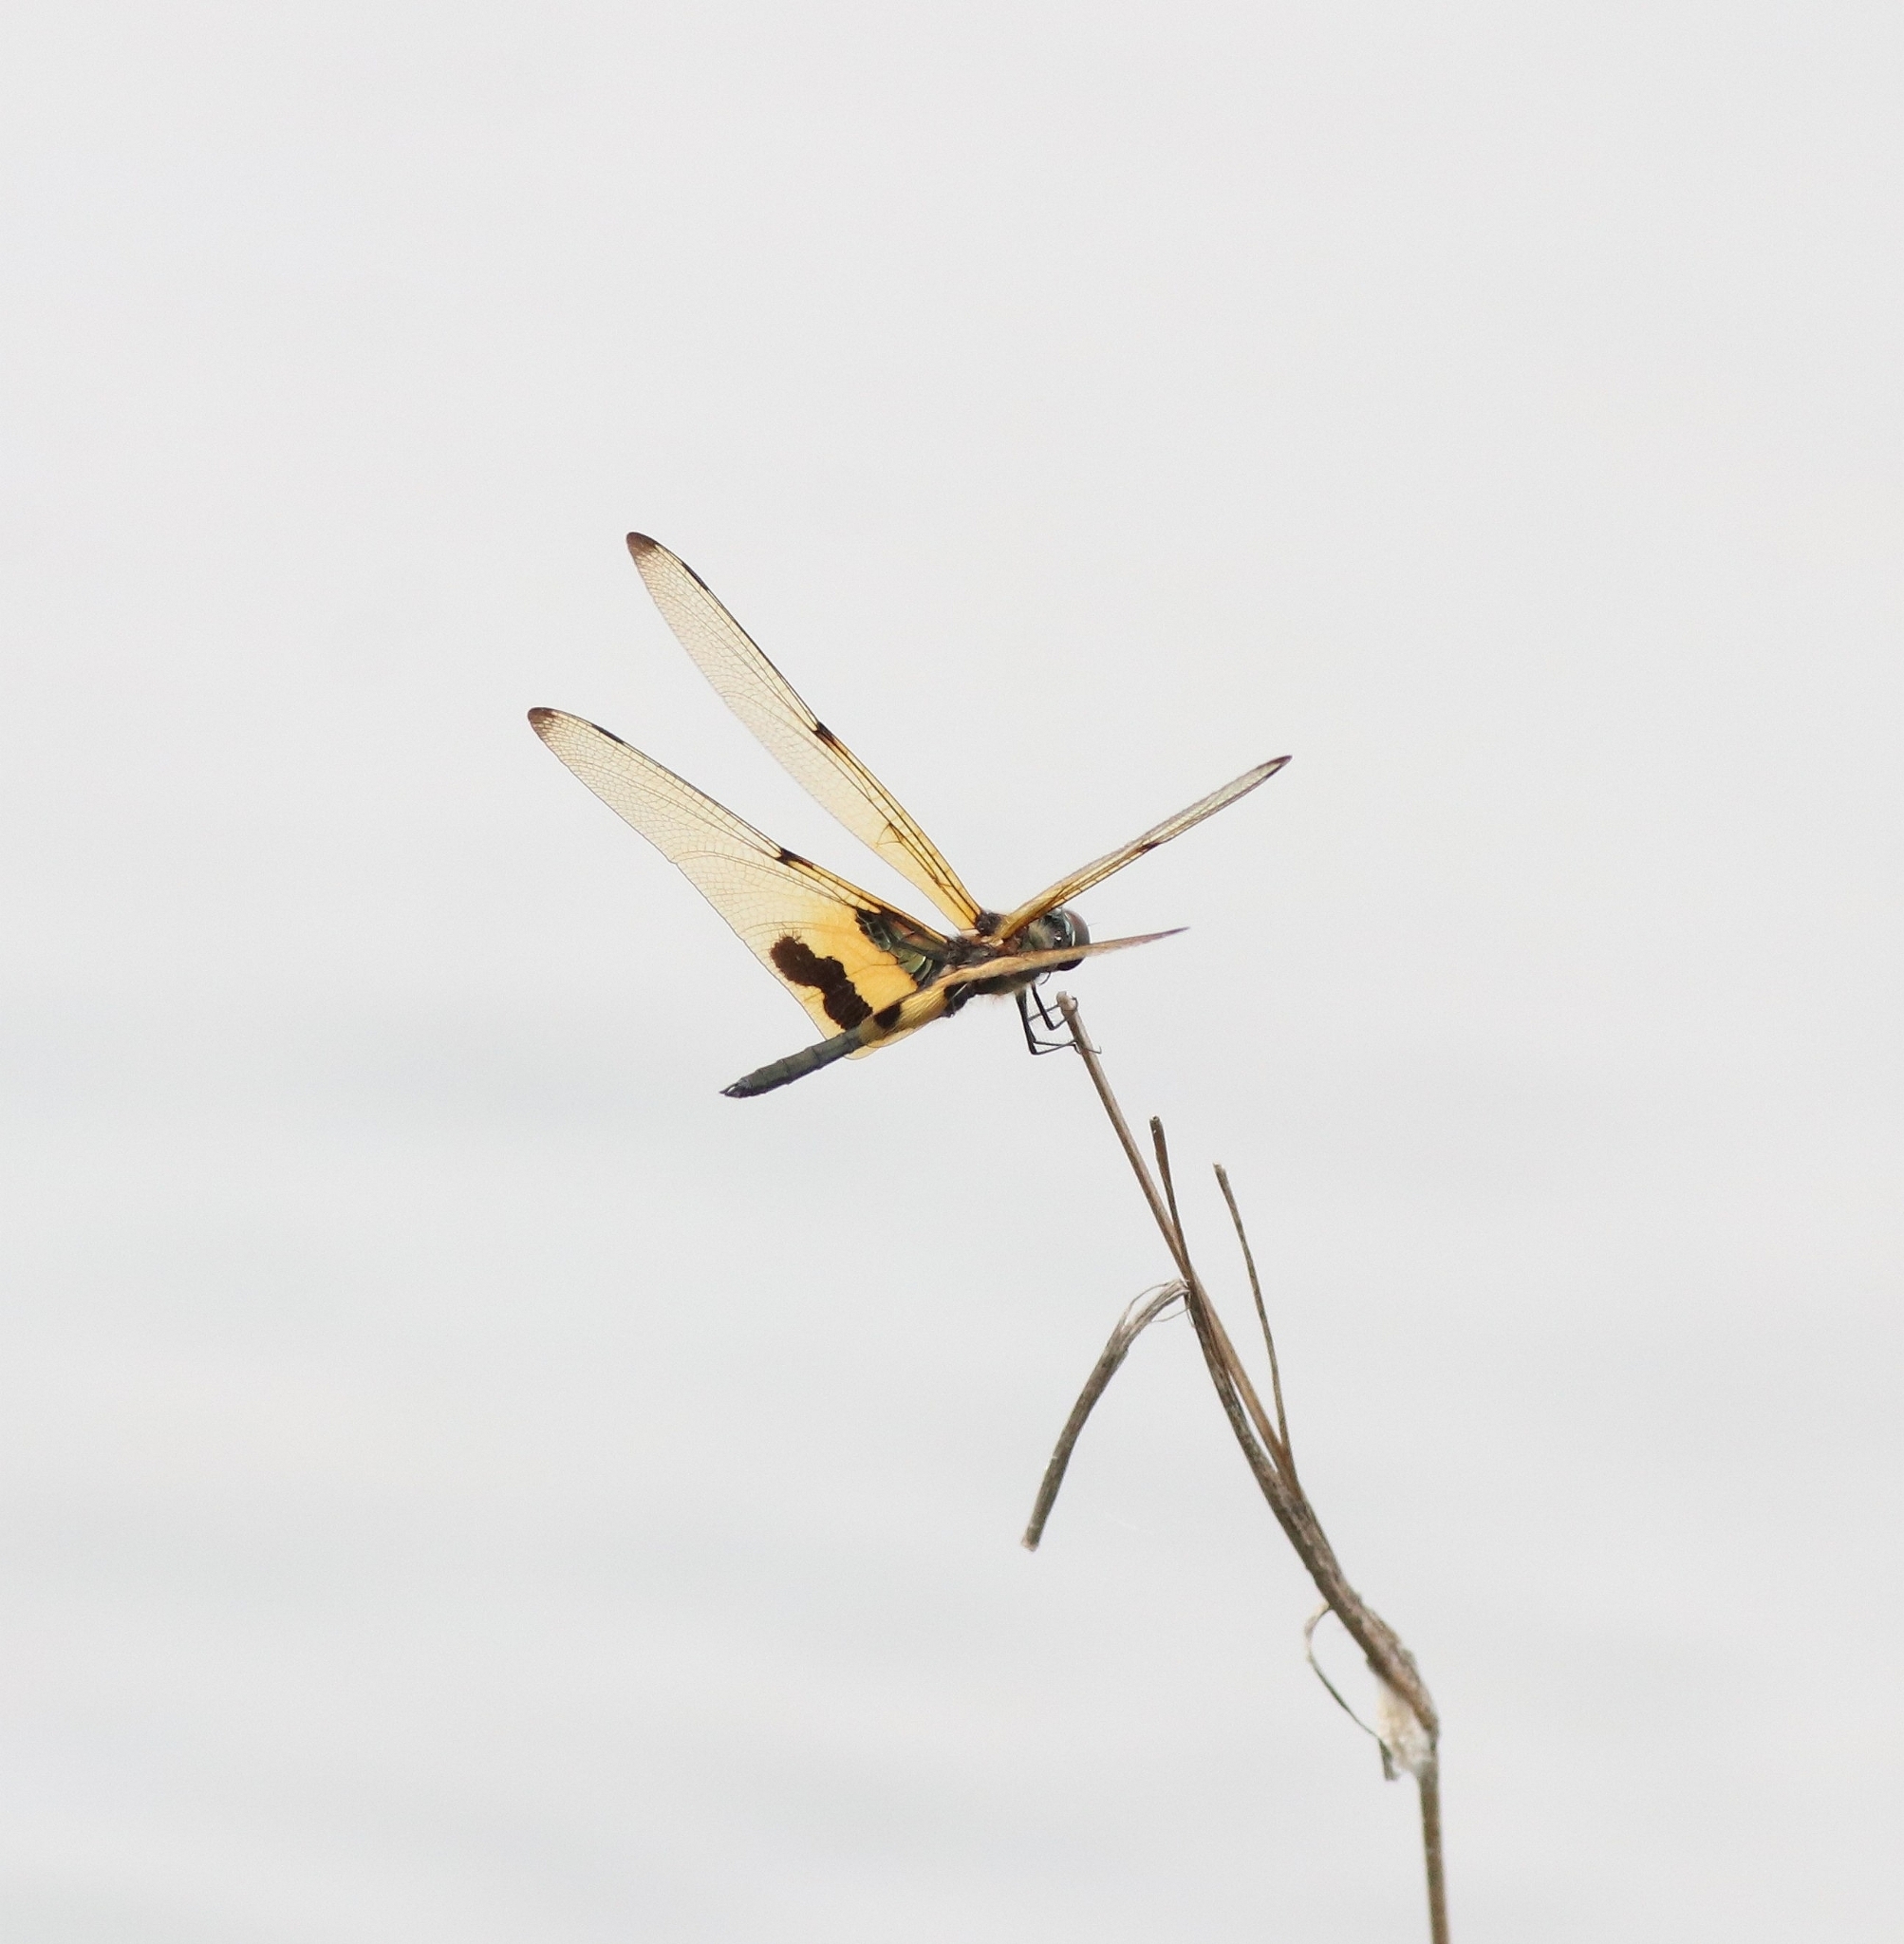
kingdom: Animalia
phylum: Arthropoda
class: Insecta
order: Odonata
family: Libellulidae
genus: Rhyothemis
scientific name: Rhyothemis variegata
